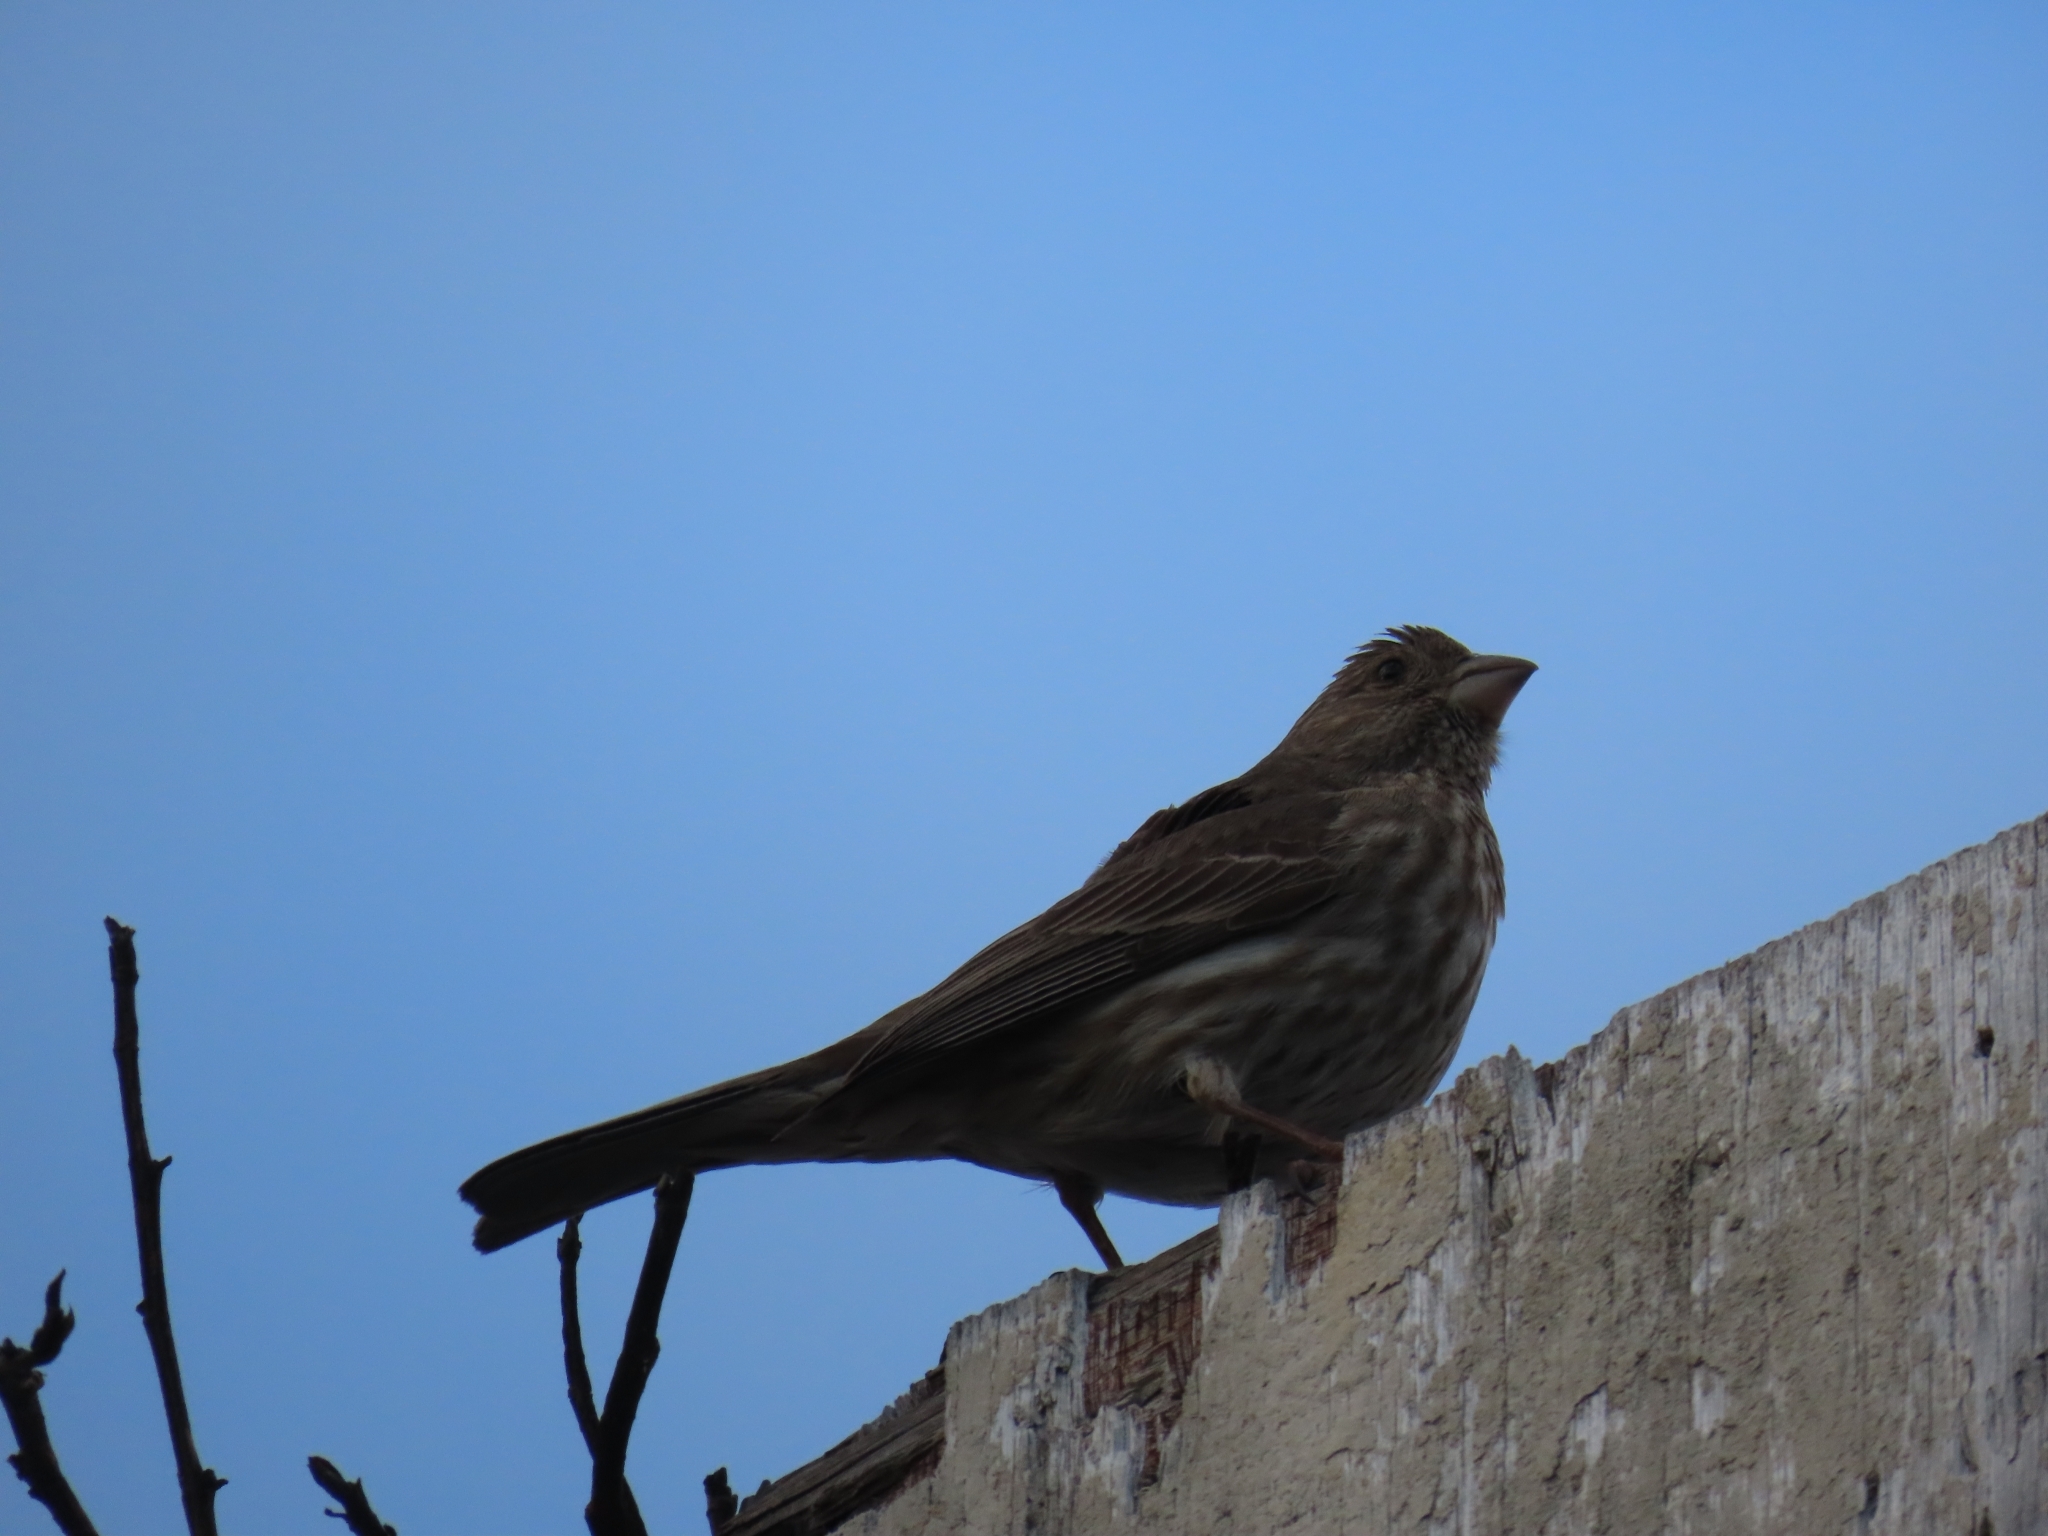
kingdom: Animalia
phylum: Chordata
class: Aves
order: Passeriformes
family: Fringillidae
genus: Haemorhous
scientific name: Haemorhous mexicanus
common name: House finch
